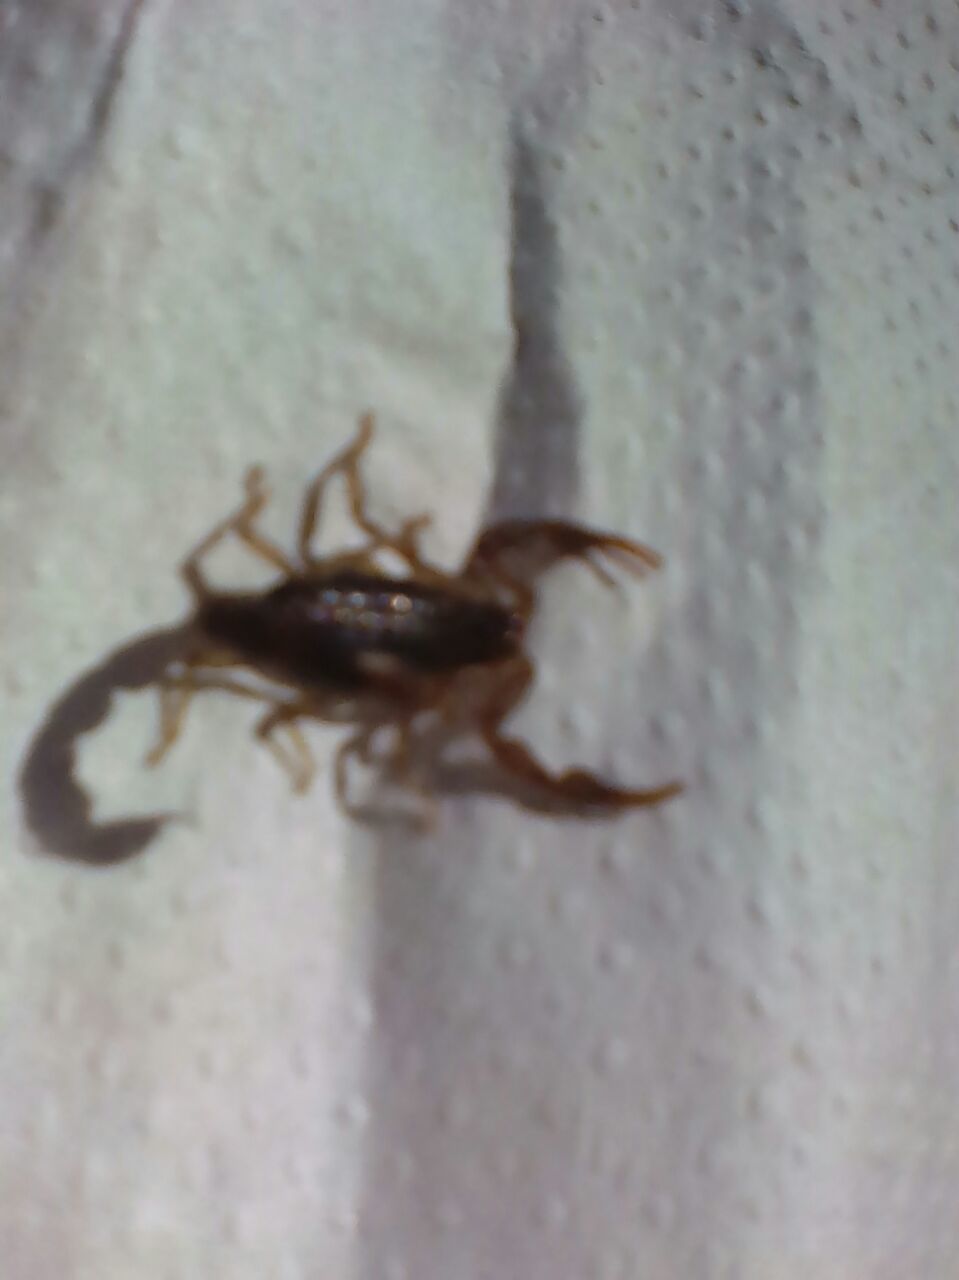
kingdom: Animalia
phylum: Arthropoda
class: Arachnida
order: Scorpiones
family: Buthidae
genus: Uroplectes
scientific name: Uroplectes insignis
